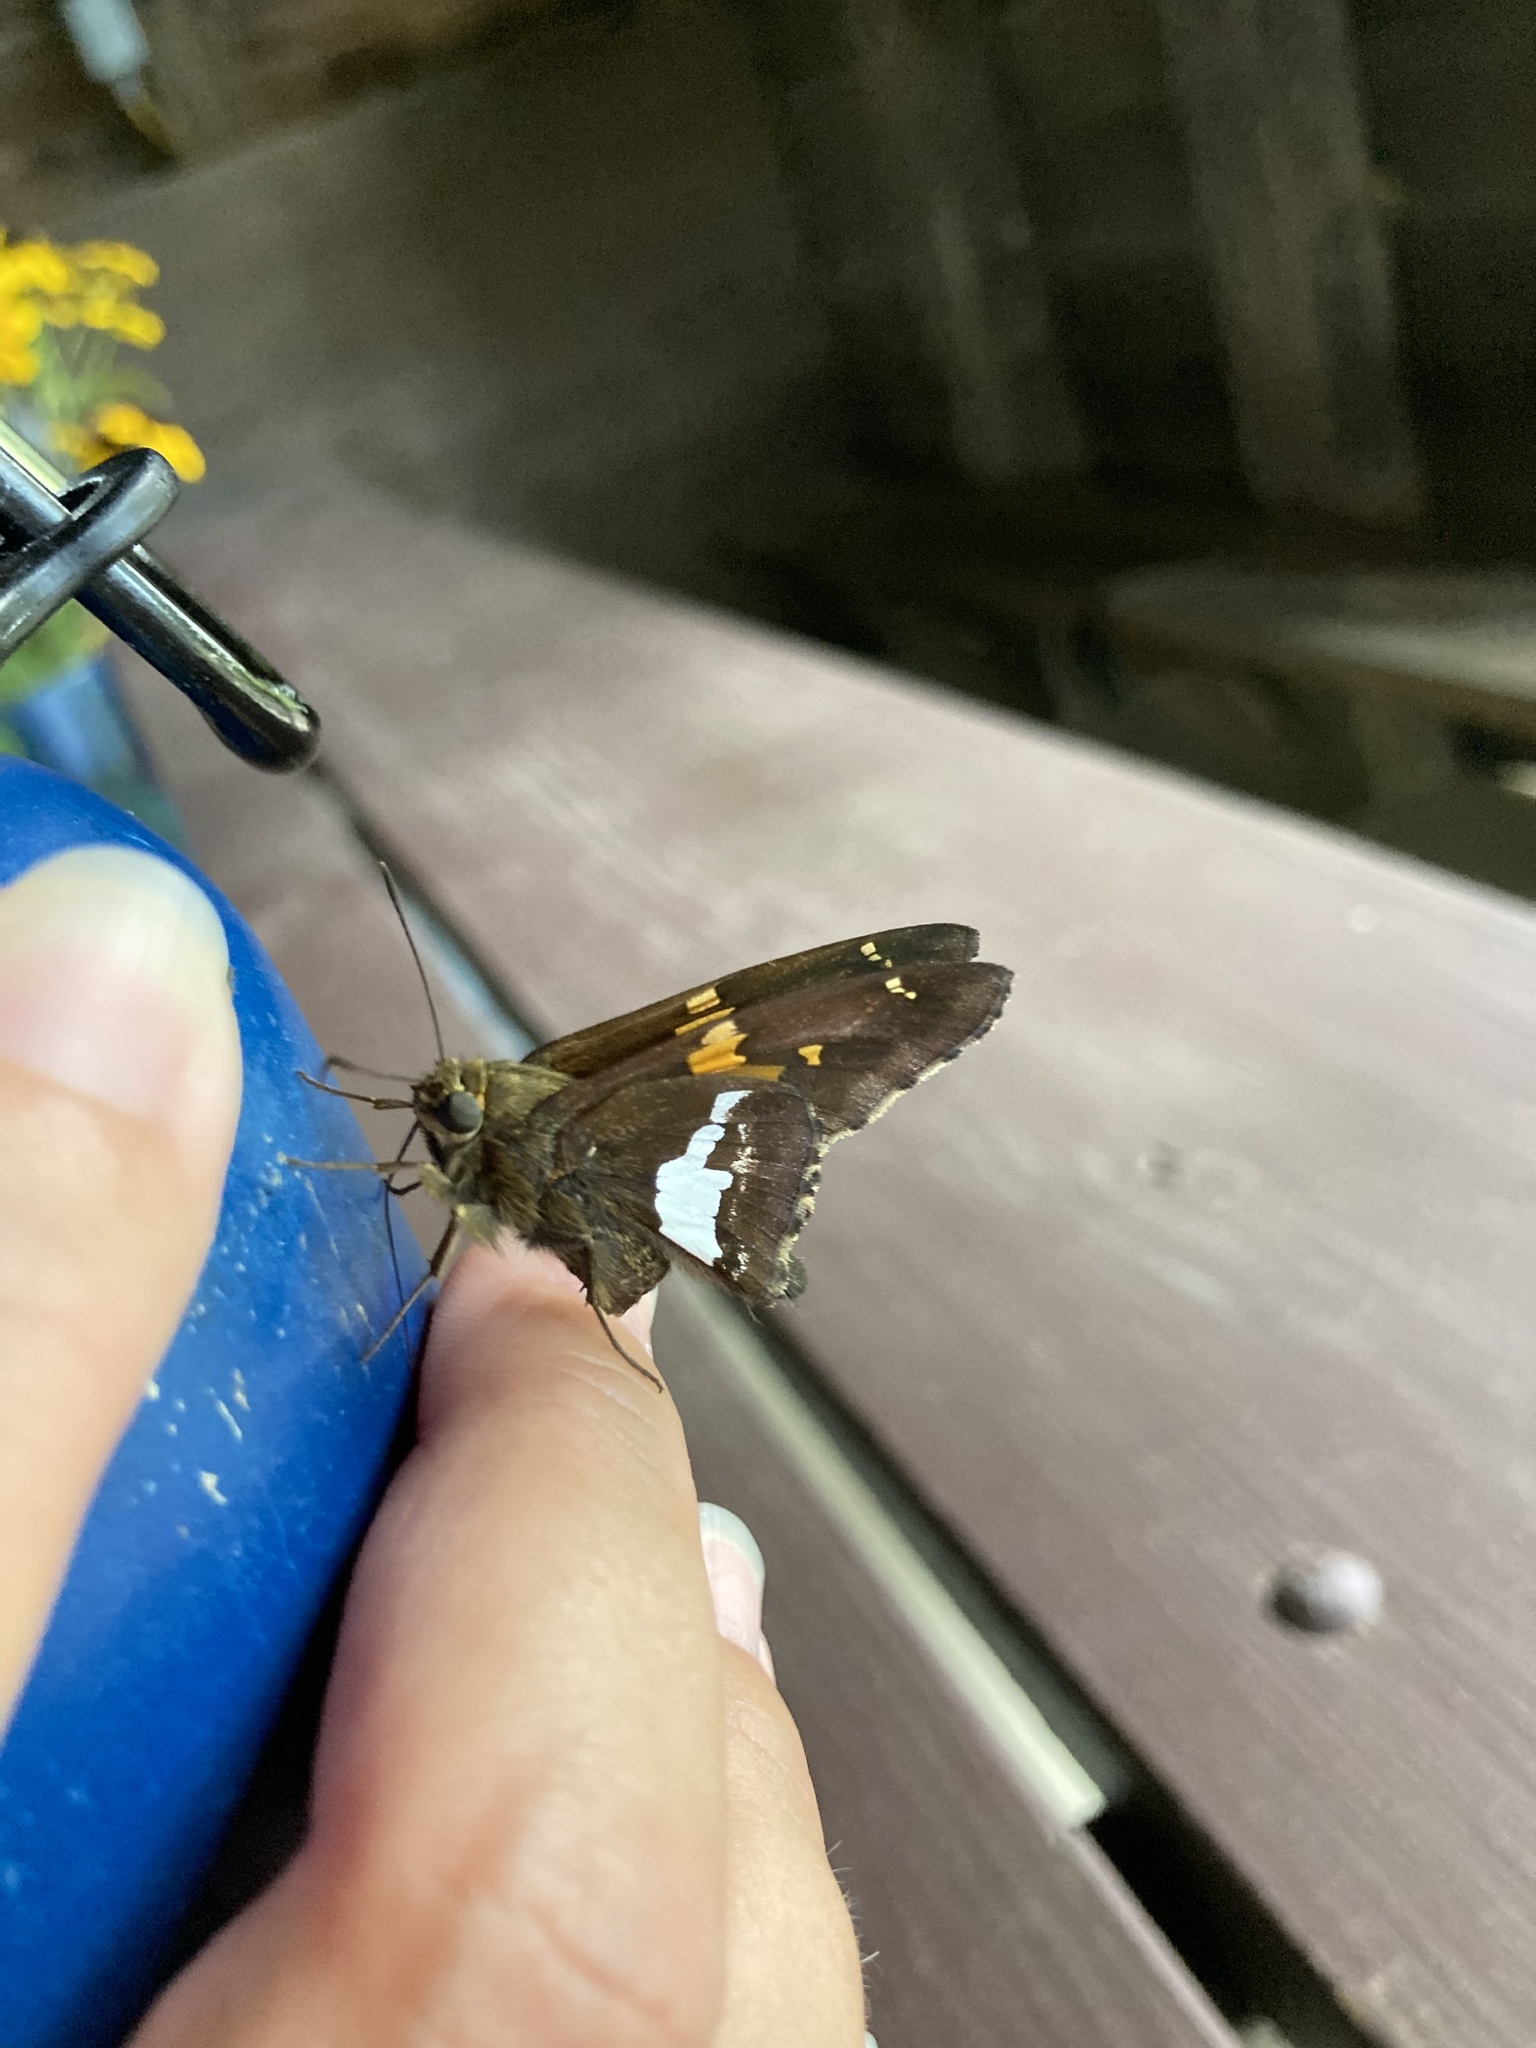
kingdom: Animalia
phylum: Arthropoda
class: Insecta
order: Lepidoptera
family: Hesperiidae
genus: Epargyreus
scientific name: Epargyreus clarus
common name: Silver-spotted skipper
